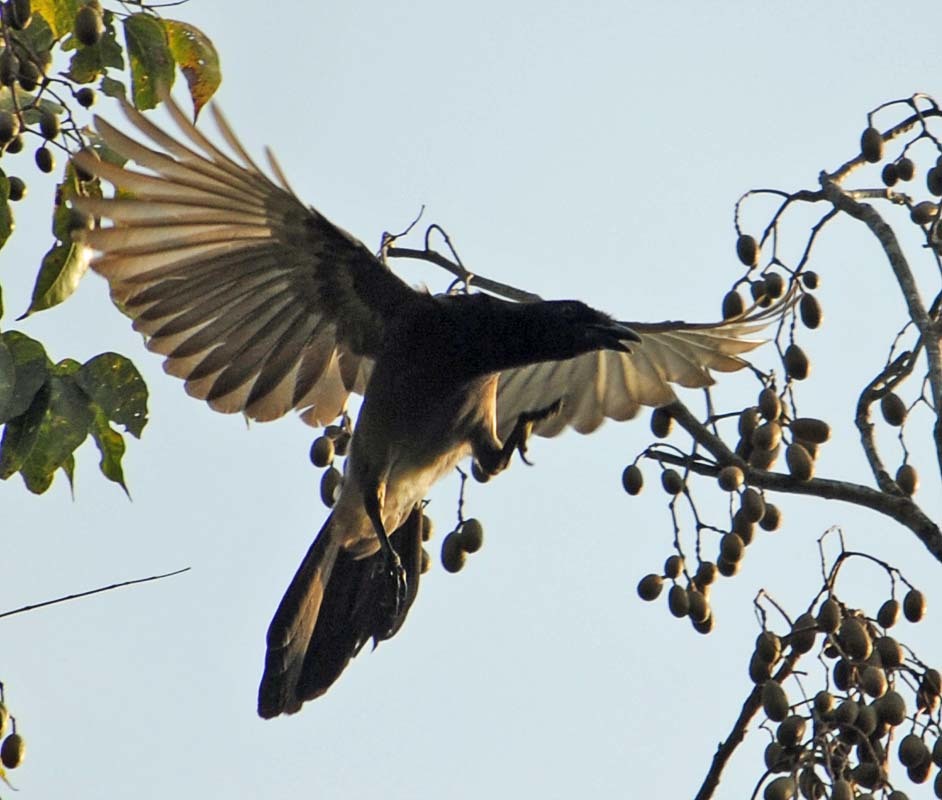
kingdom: Animalia
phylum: Chordata
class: Aves
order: Passeriformes
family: Corvidae
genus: Psilorhinus
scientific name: Psilorhinus morio
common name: Brown jay
